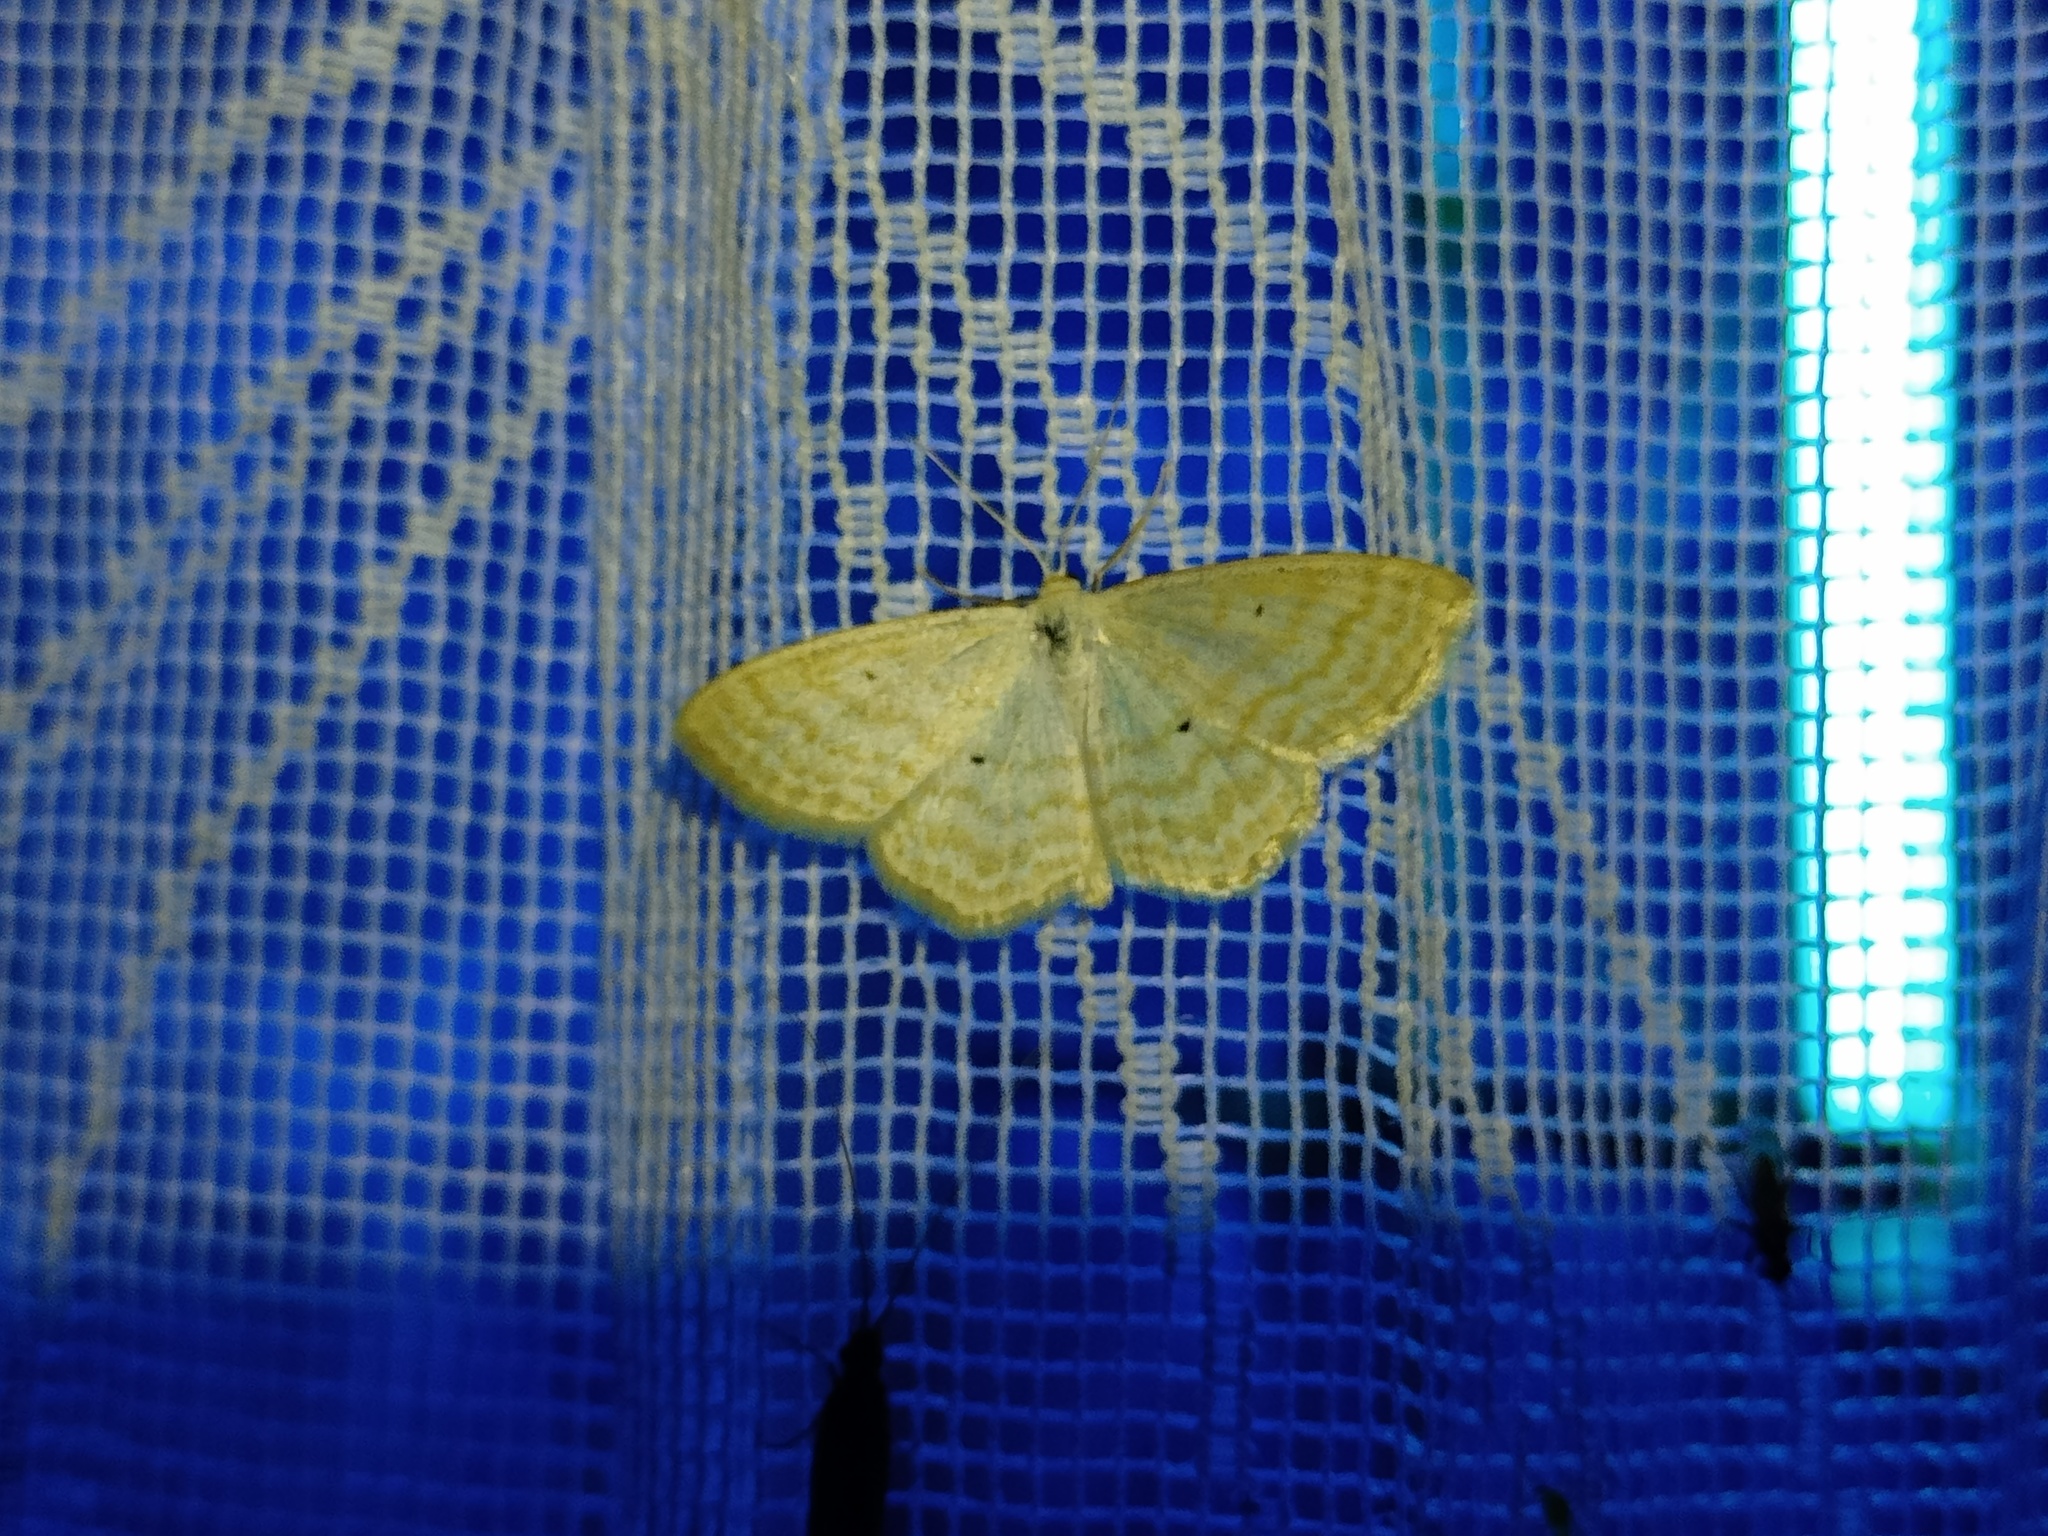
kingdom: Animalia
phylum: Arthropoda
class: Insecta
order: Lepidoptera
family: Geometridae
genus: Scopula
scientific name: Scopula immutata
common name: Lesser cream wave
